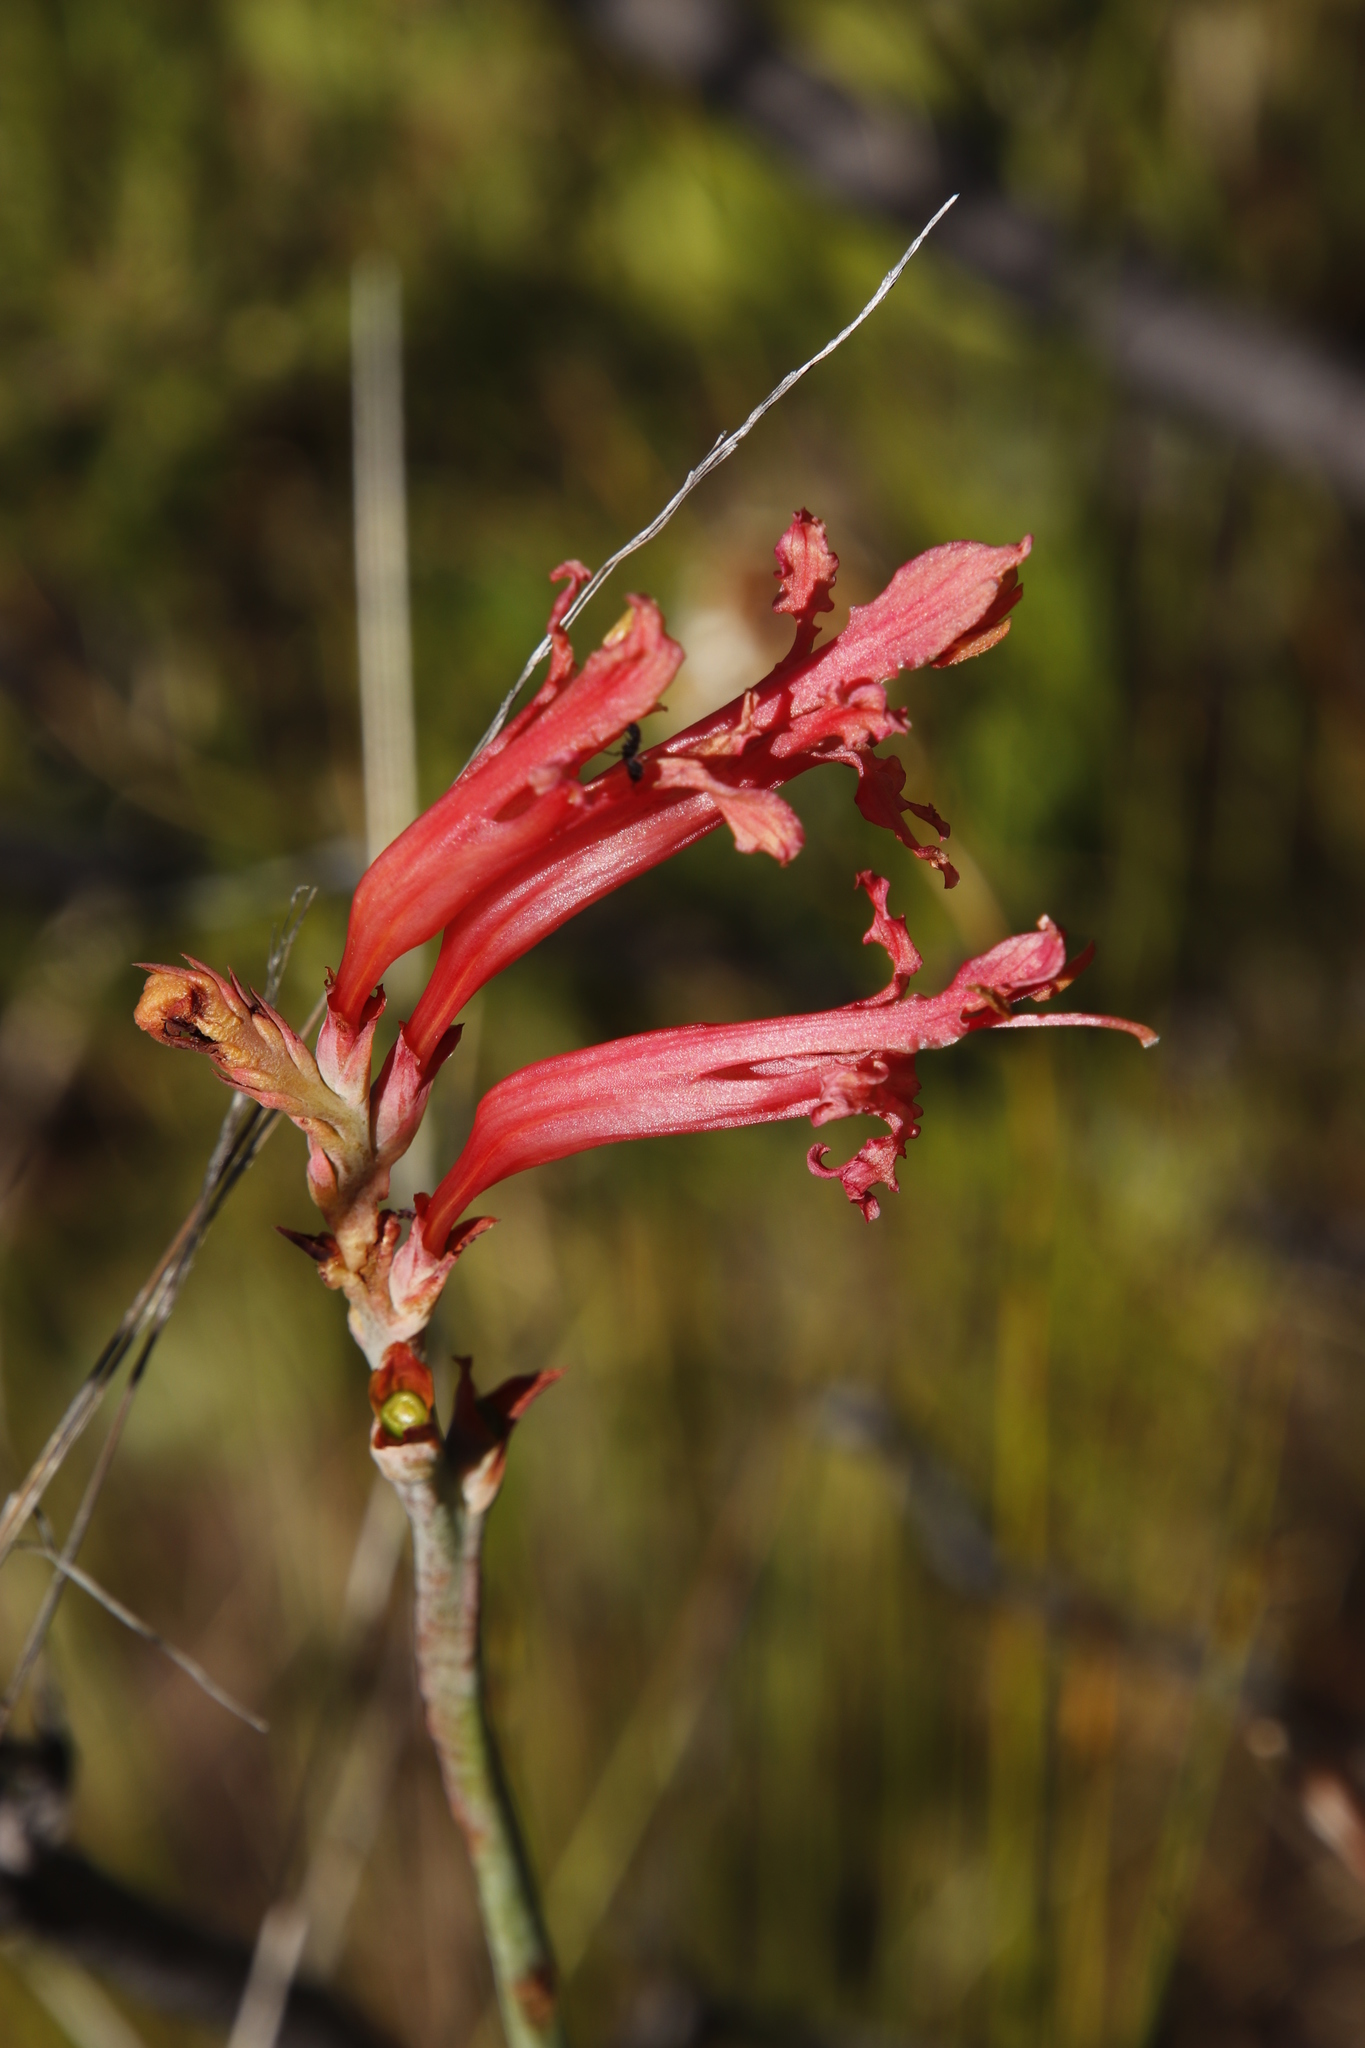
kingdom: Plantae
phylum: Tracheophyta
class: Liliopsida
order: Asparagales
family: Iridaceae
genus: Tritoniopsis
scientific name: Tritoniopsis antholyza
